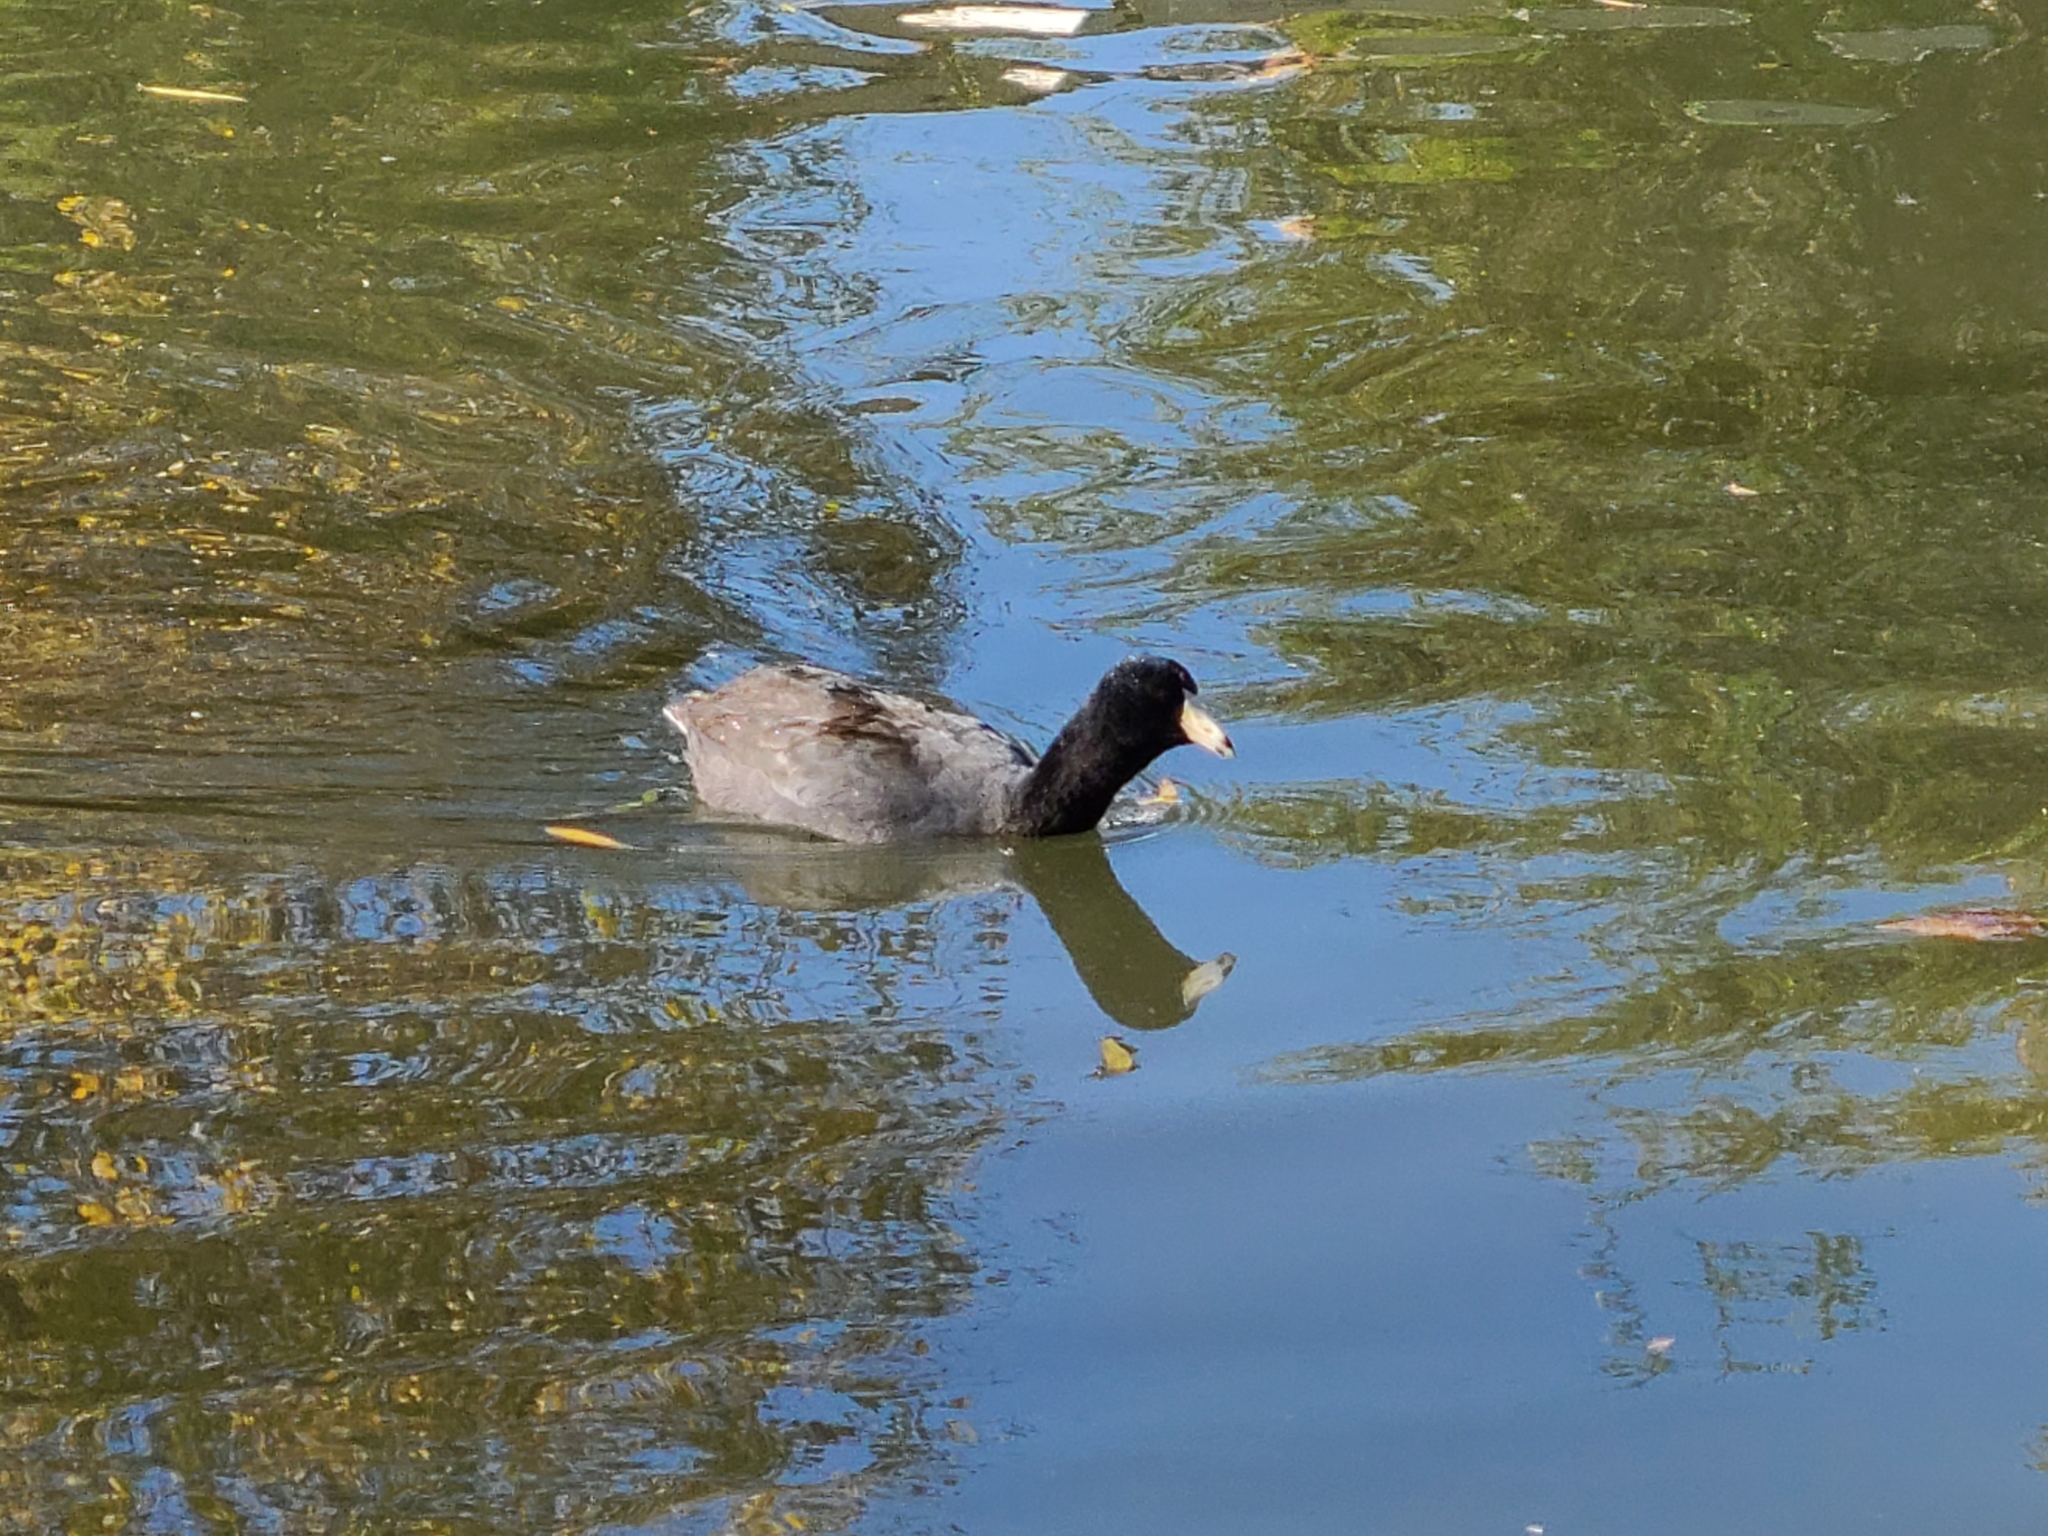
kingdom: Animalia
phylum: Chordata
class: Aves
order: Gruiformes
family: Rallidae
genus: Fulica
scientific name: Fulica americana
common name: American coot
